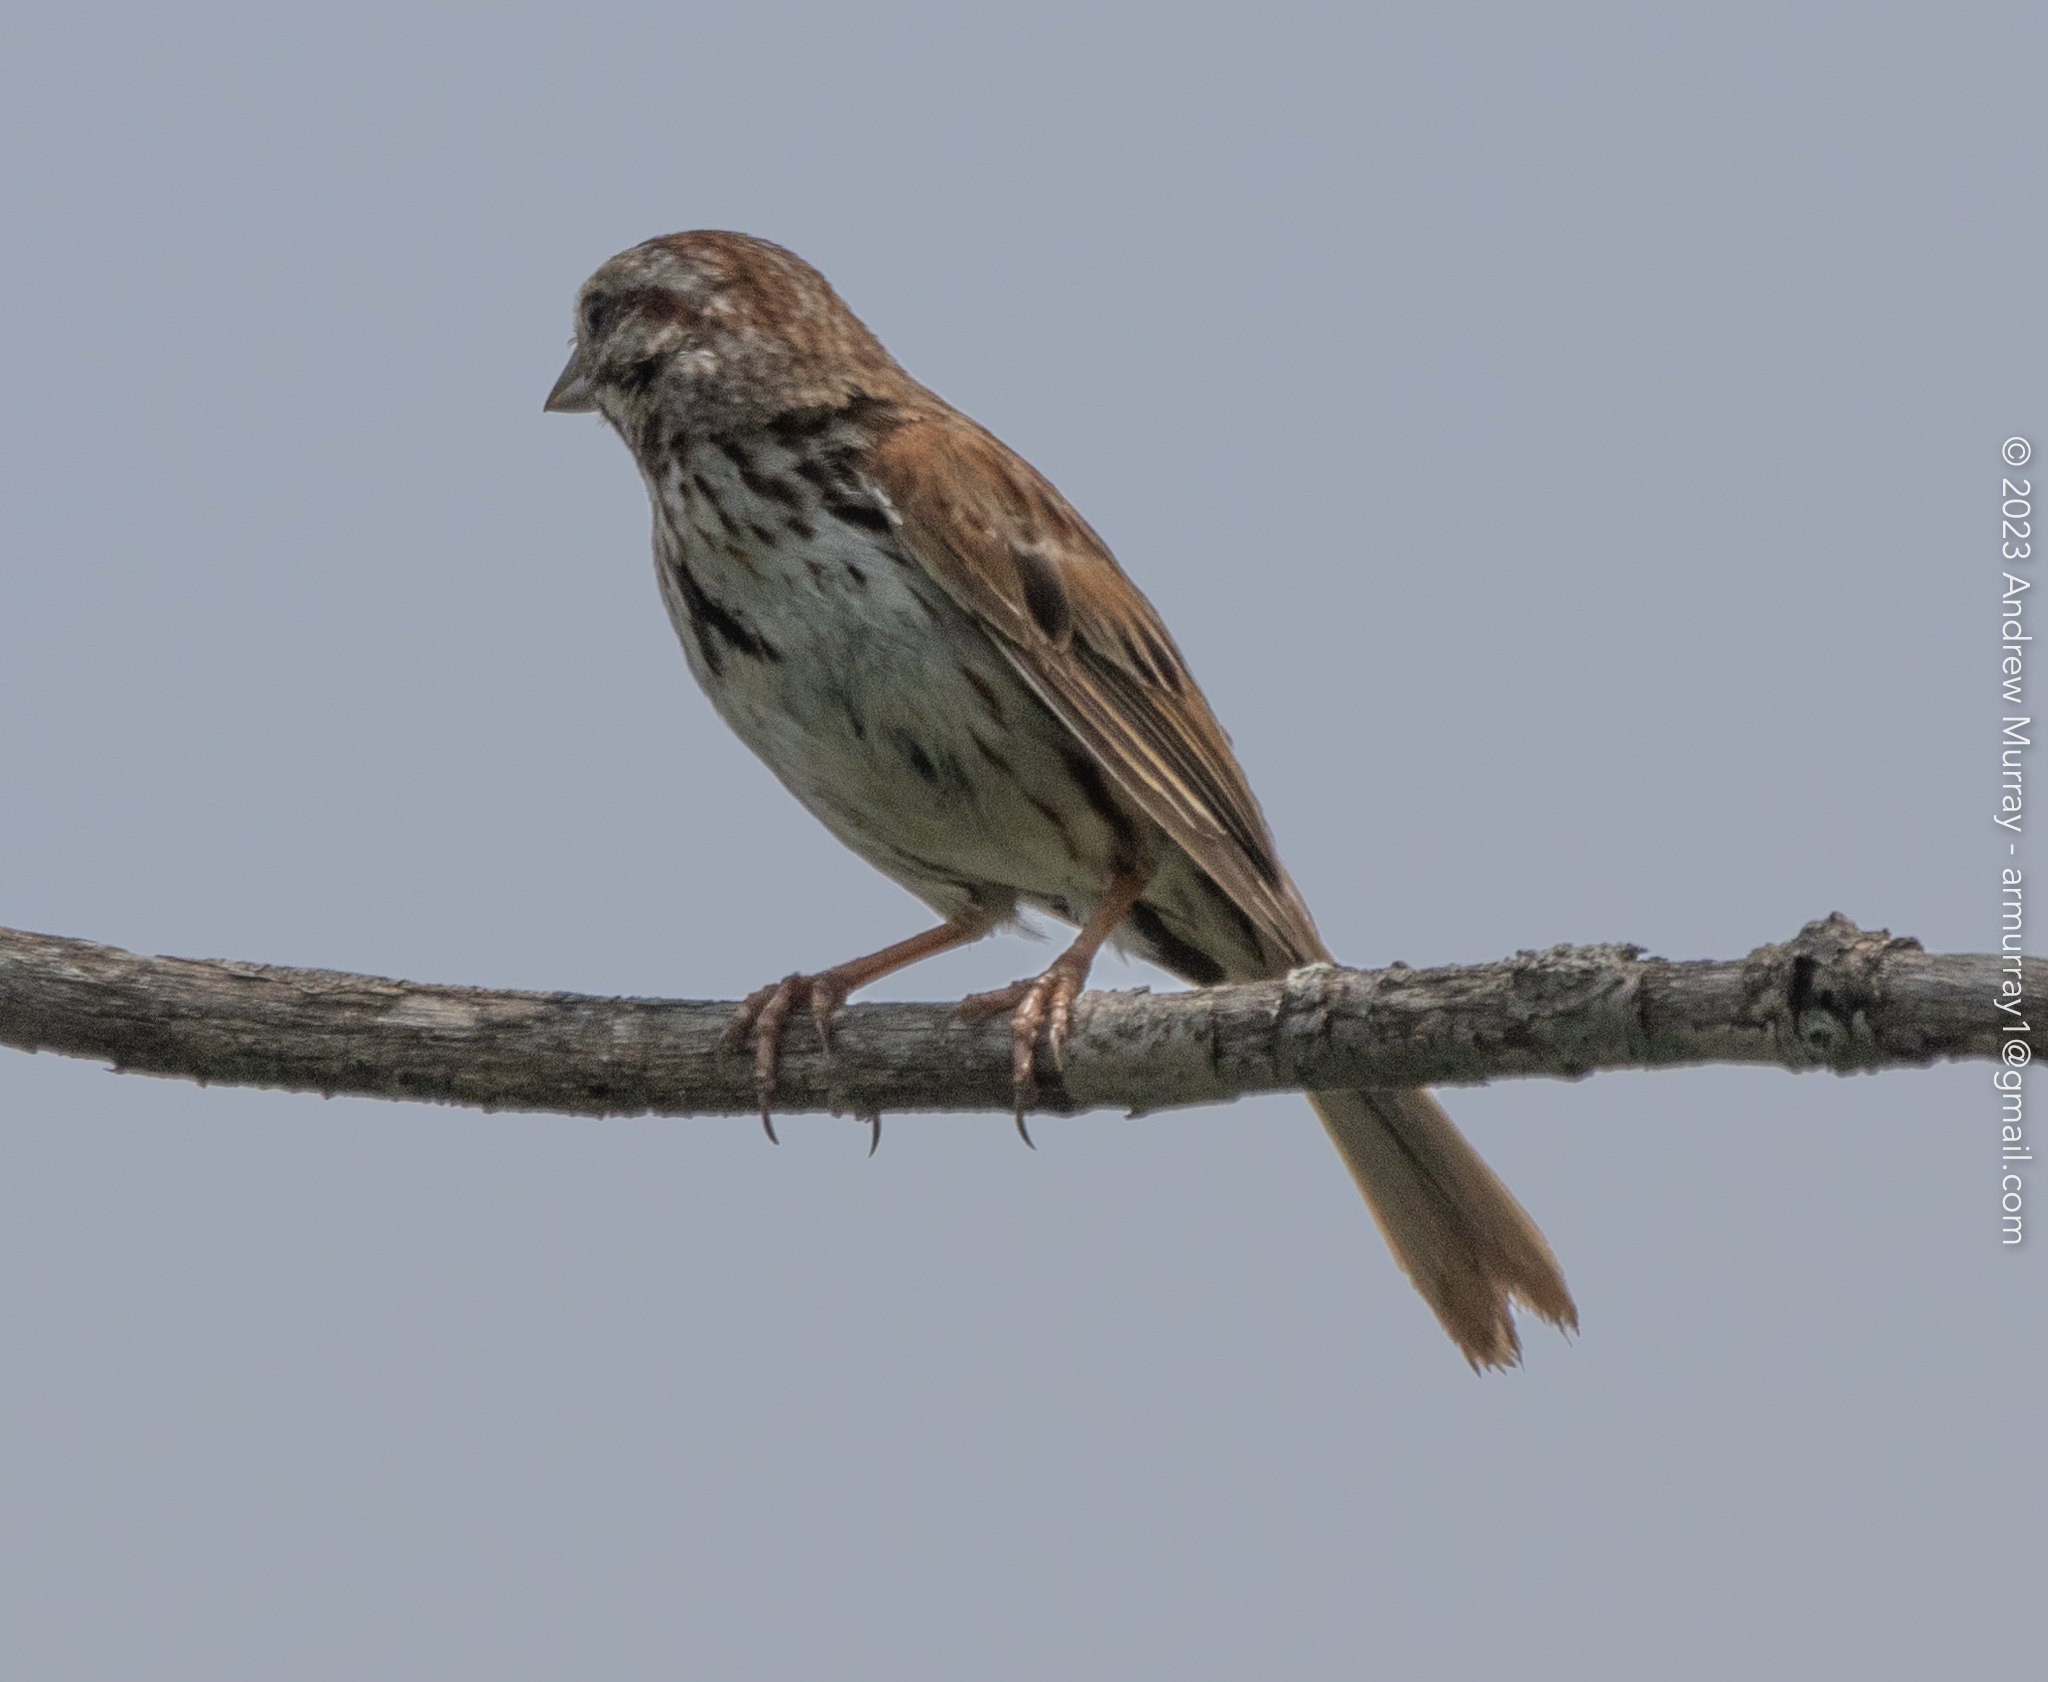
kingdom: Animalia
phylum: Chordata
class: Aves
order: Passeriformes
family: Passerellidae
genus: Melospiza
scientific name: Melospiza melodia
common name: Song sparrow
